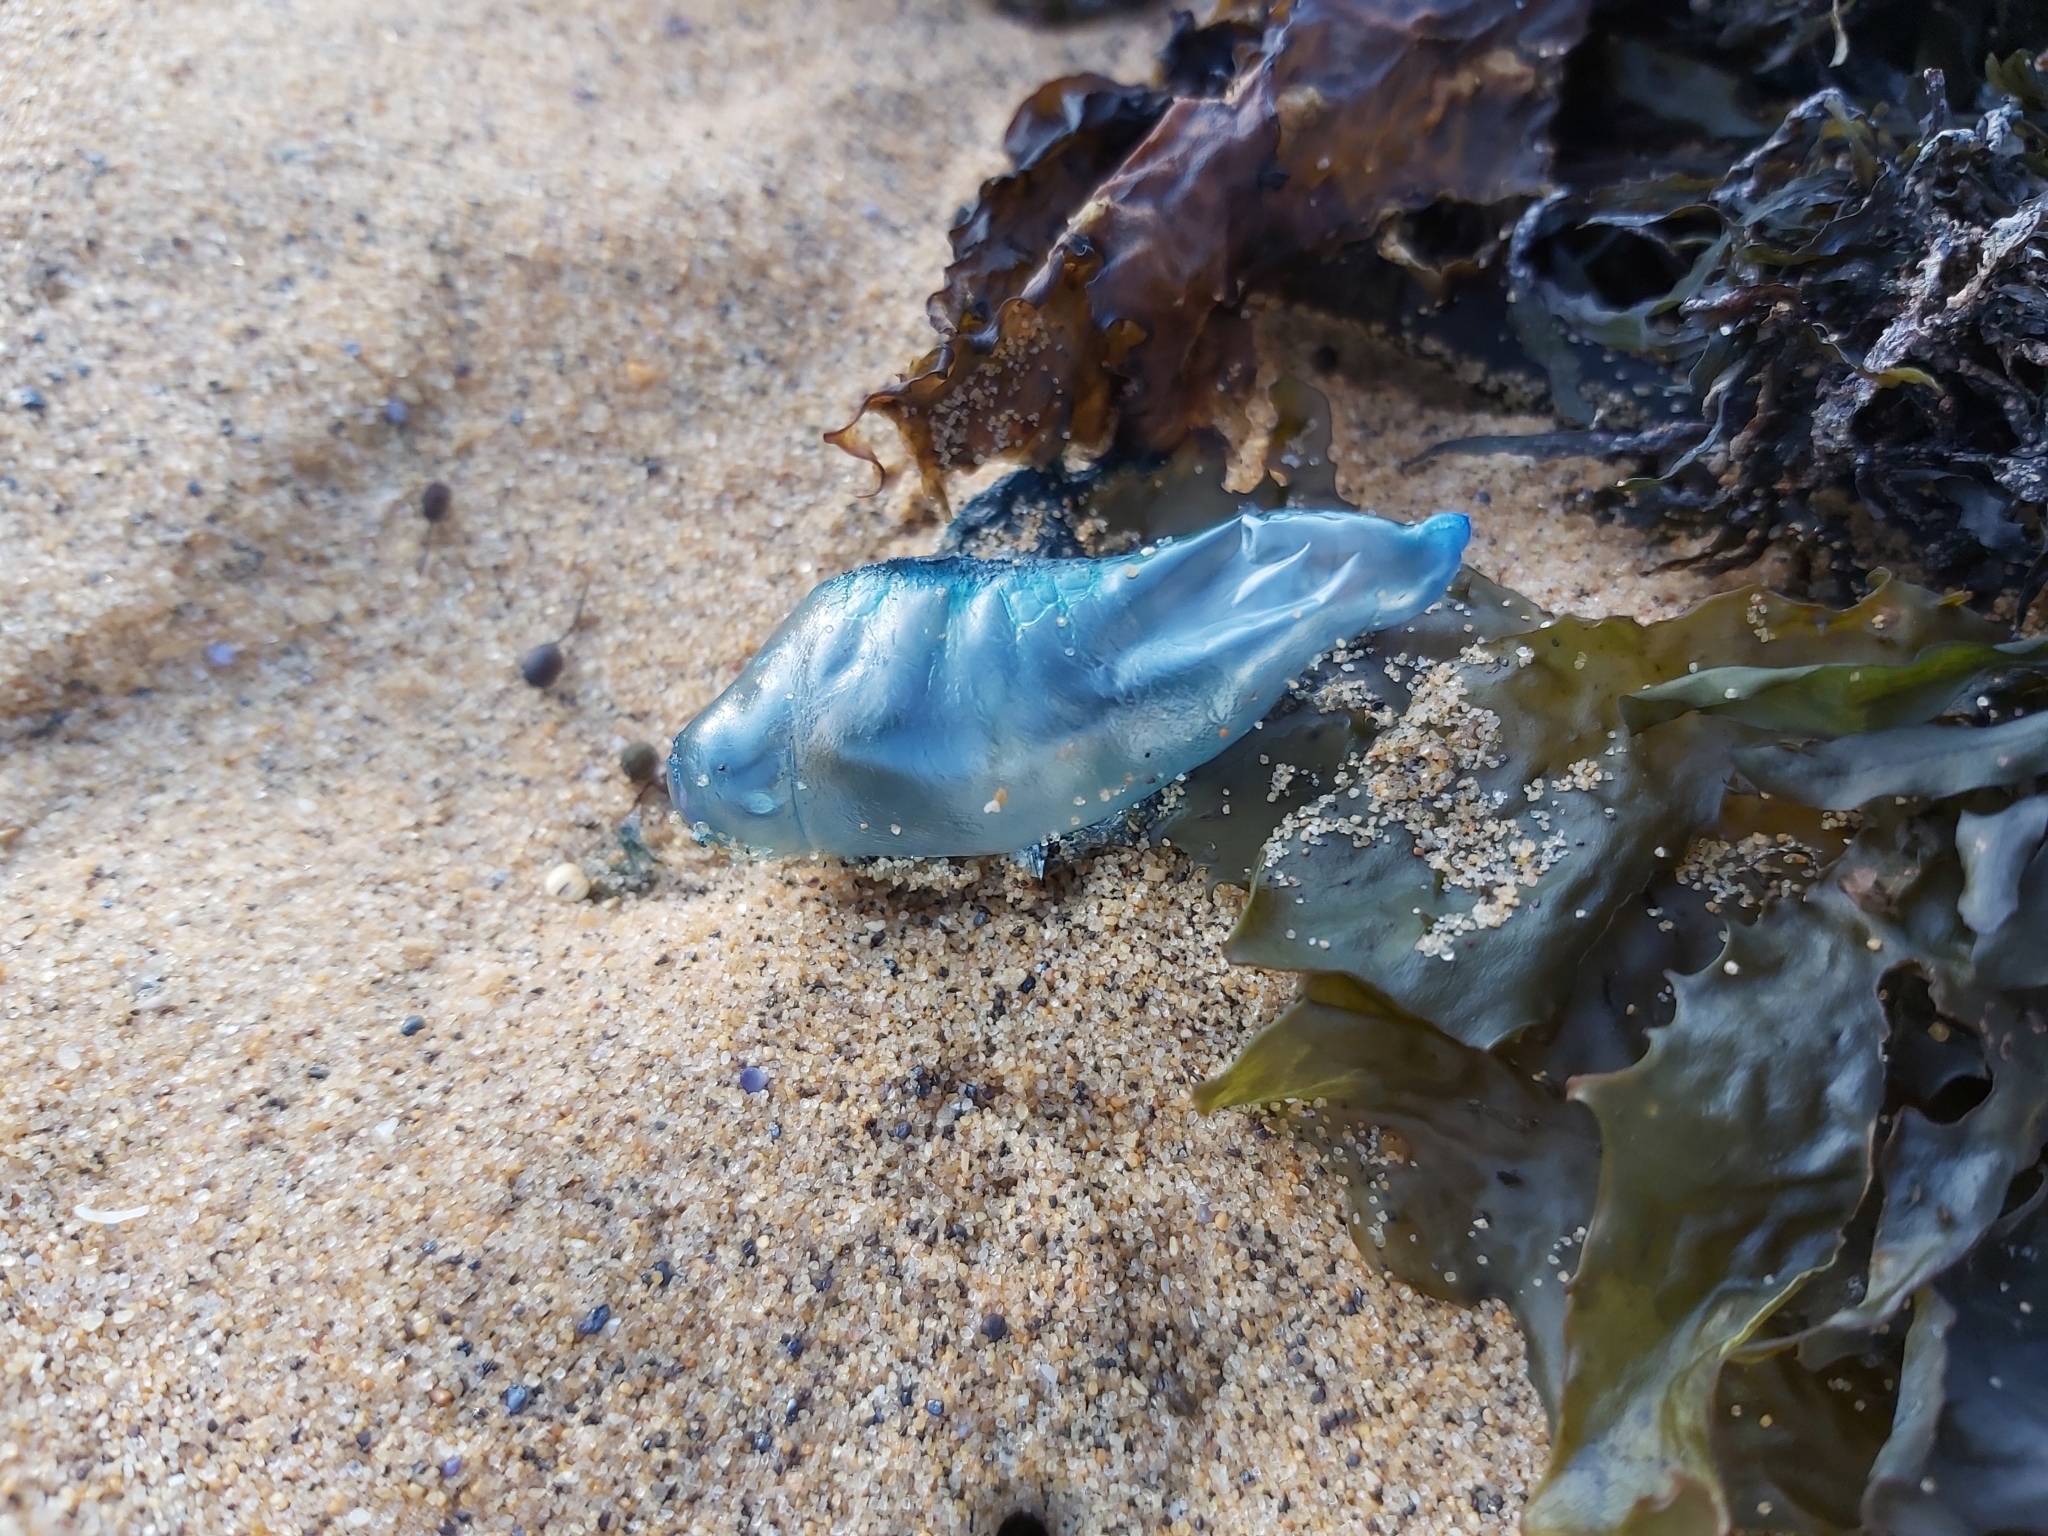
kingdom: Animalia
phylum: Cnidaria
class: Hydrozoa
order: Siphonophorae
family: Physaliidae
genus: Physalia
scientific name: Physalia physalis
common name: Portuguese man-of-war
